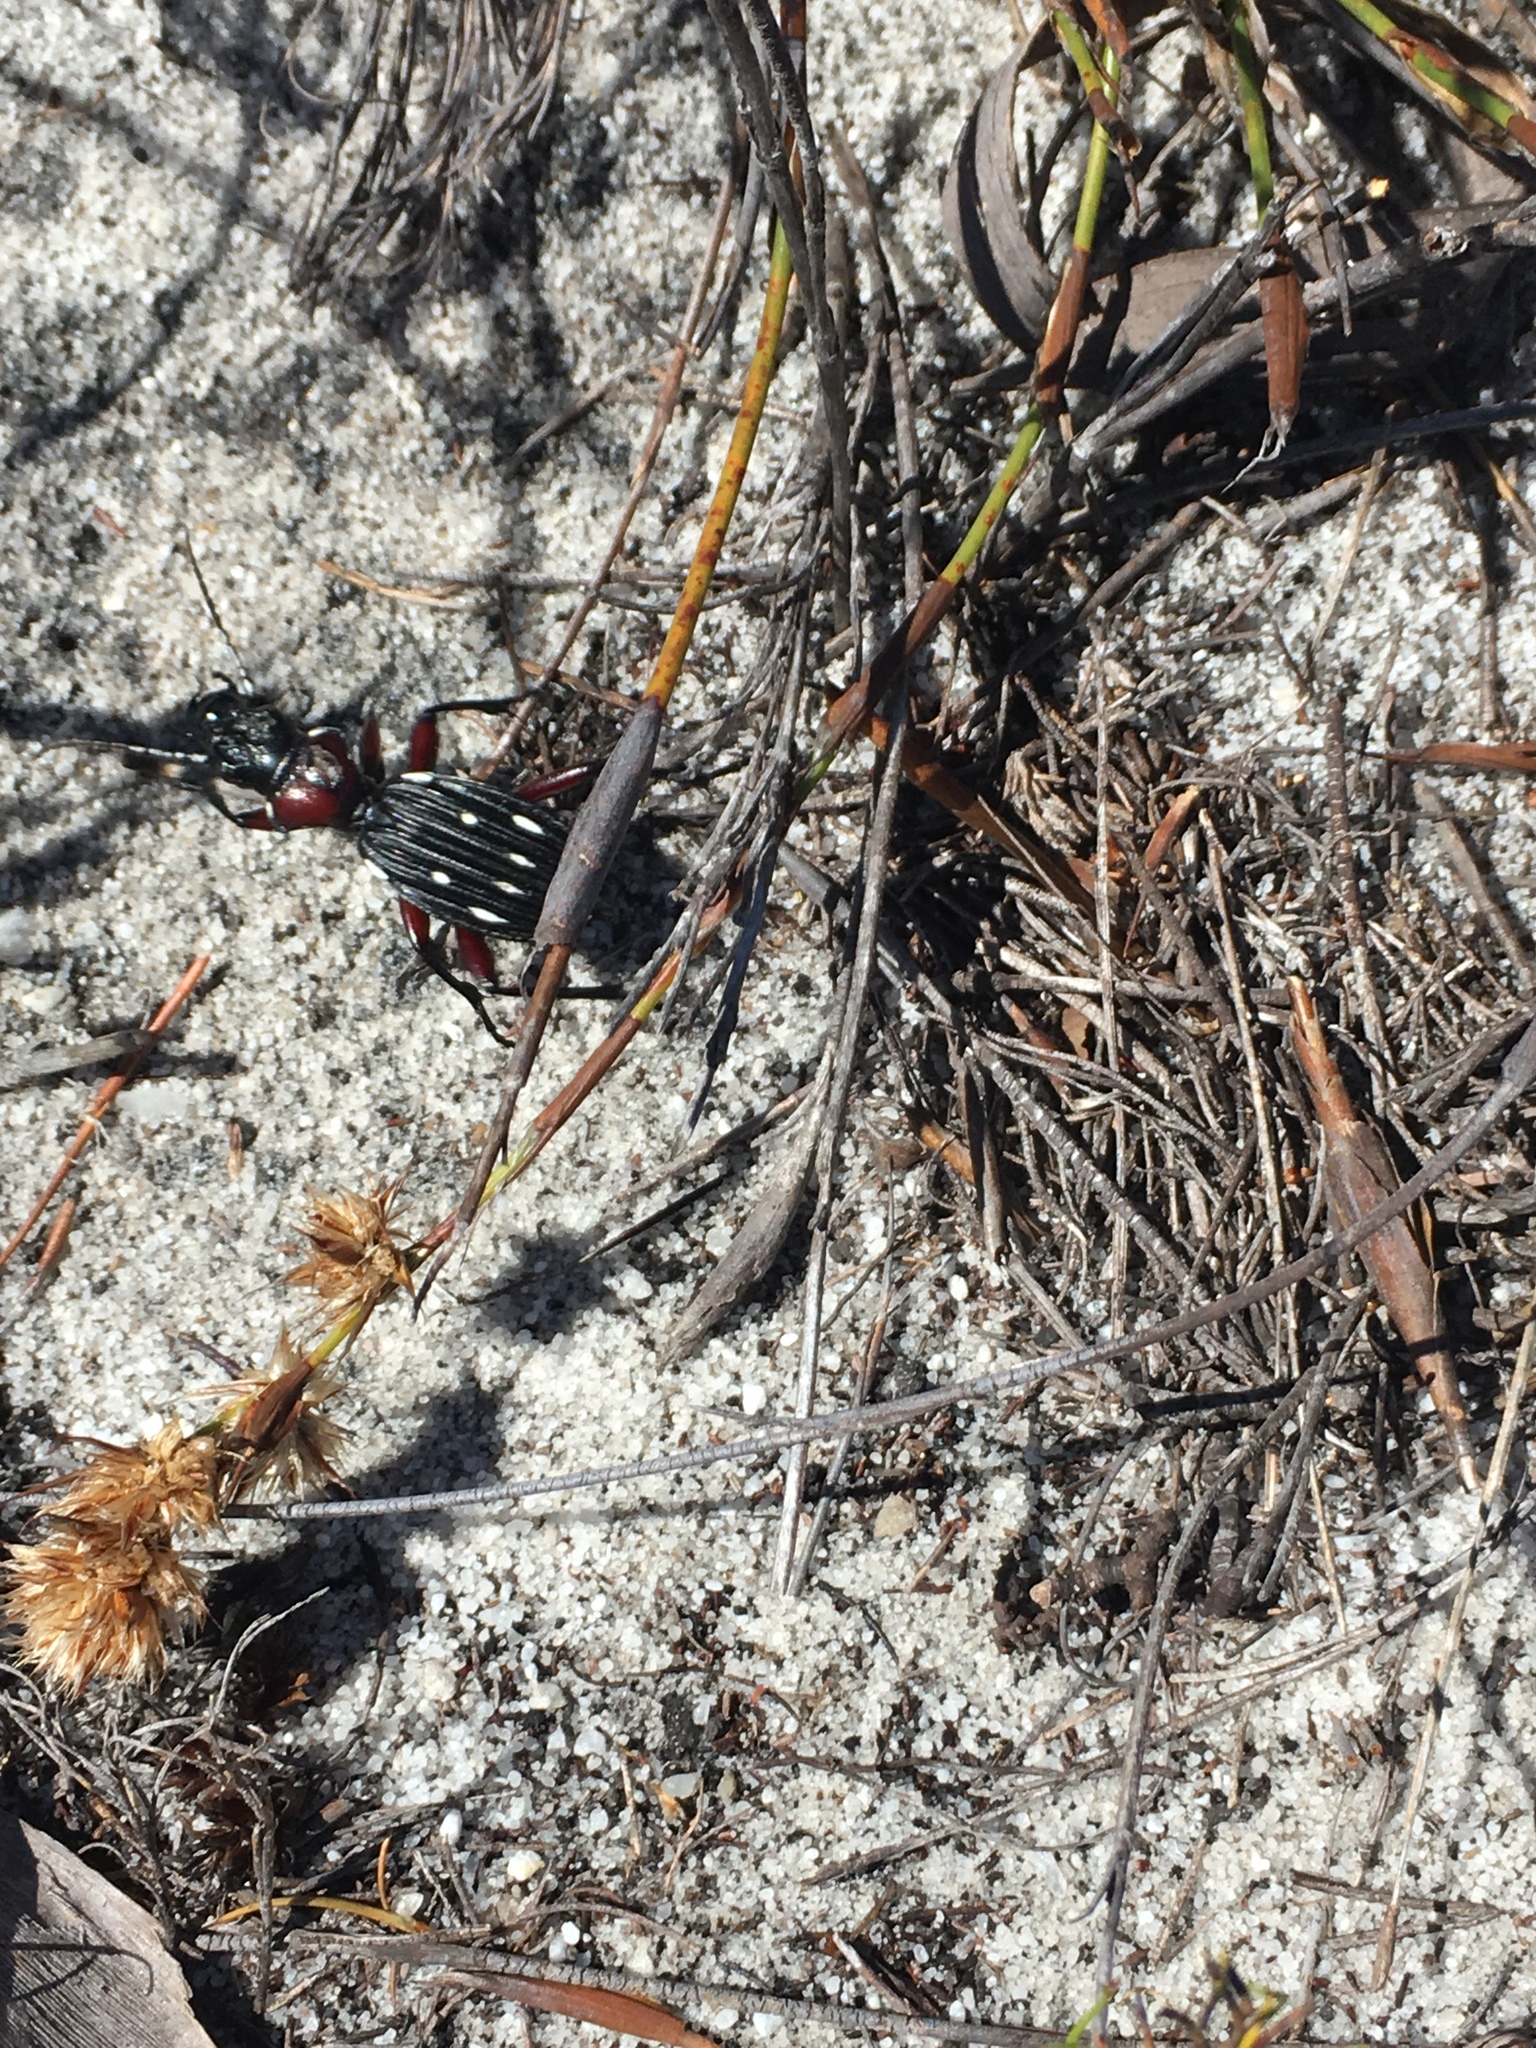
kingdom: Animalia
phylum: Arthropoda
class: Insecta
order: Coleoptera
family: Carabidae
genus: Anthia
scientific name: Anthia decemguttata
